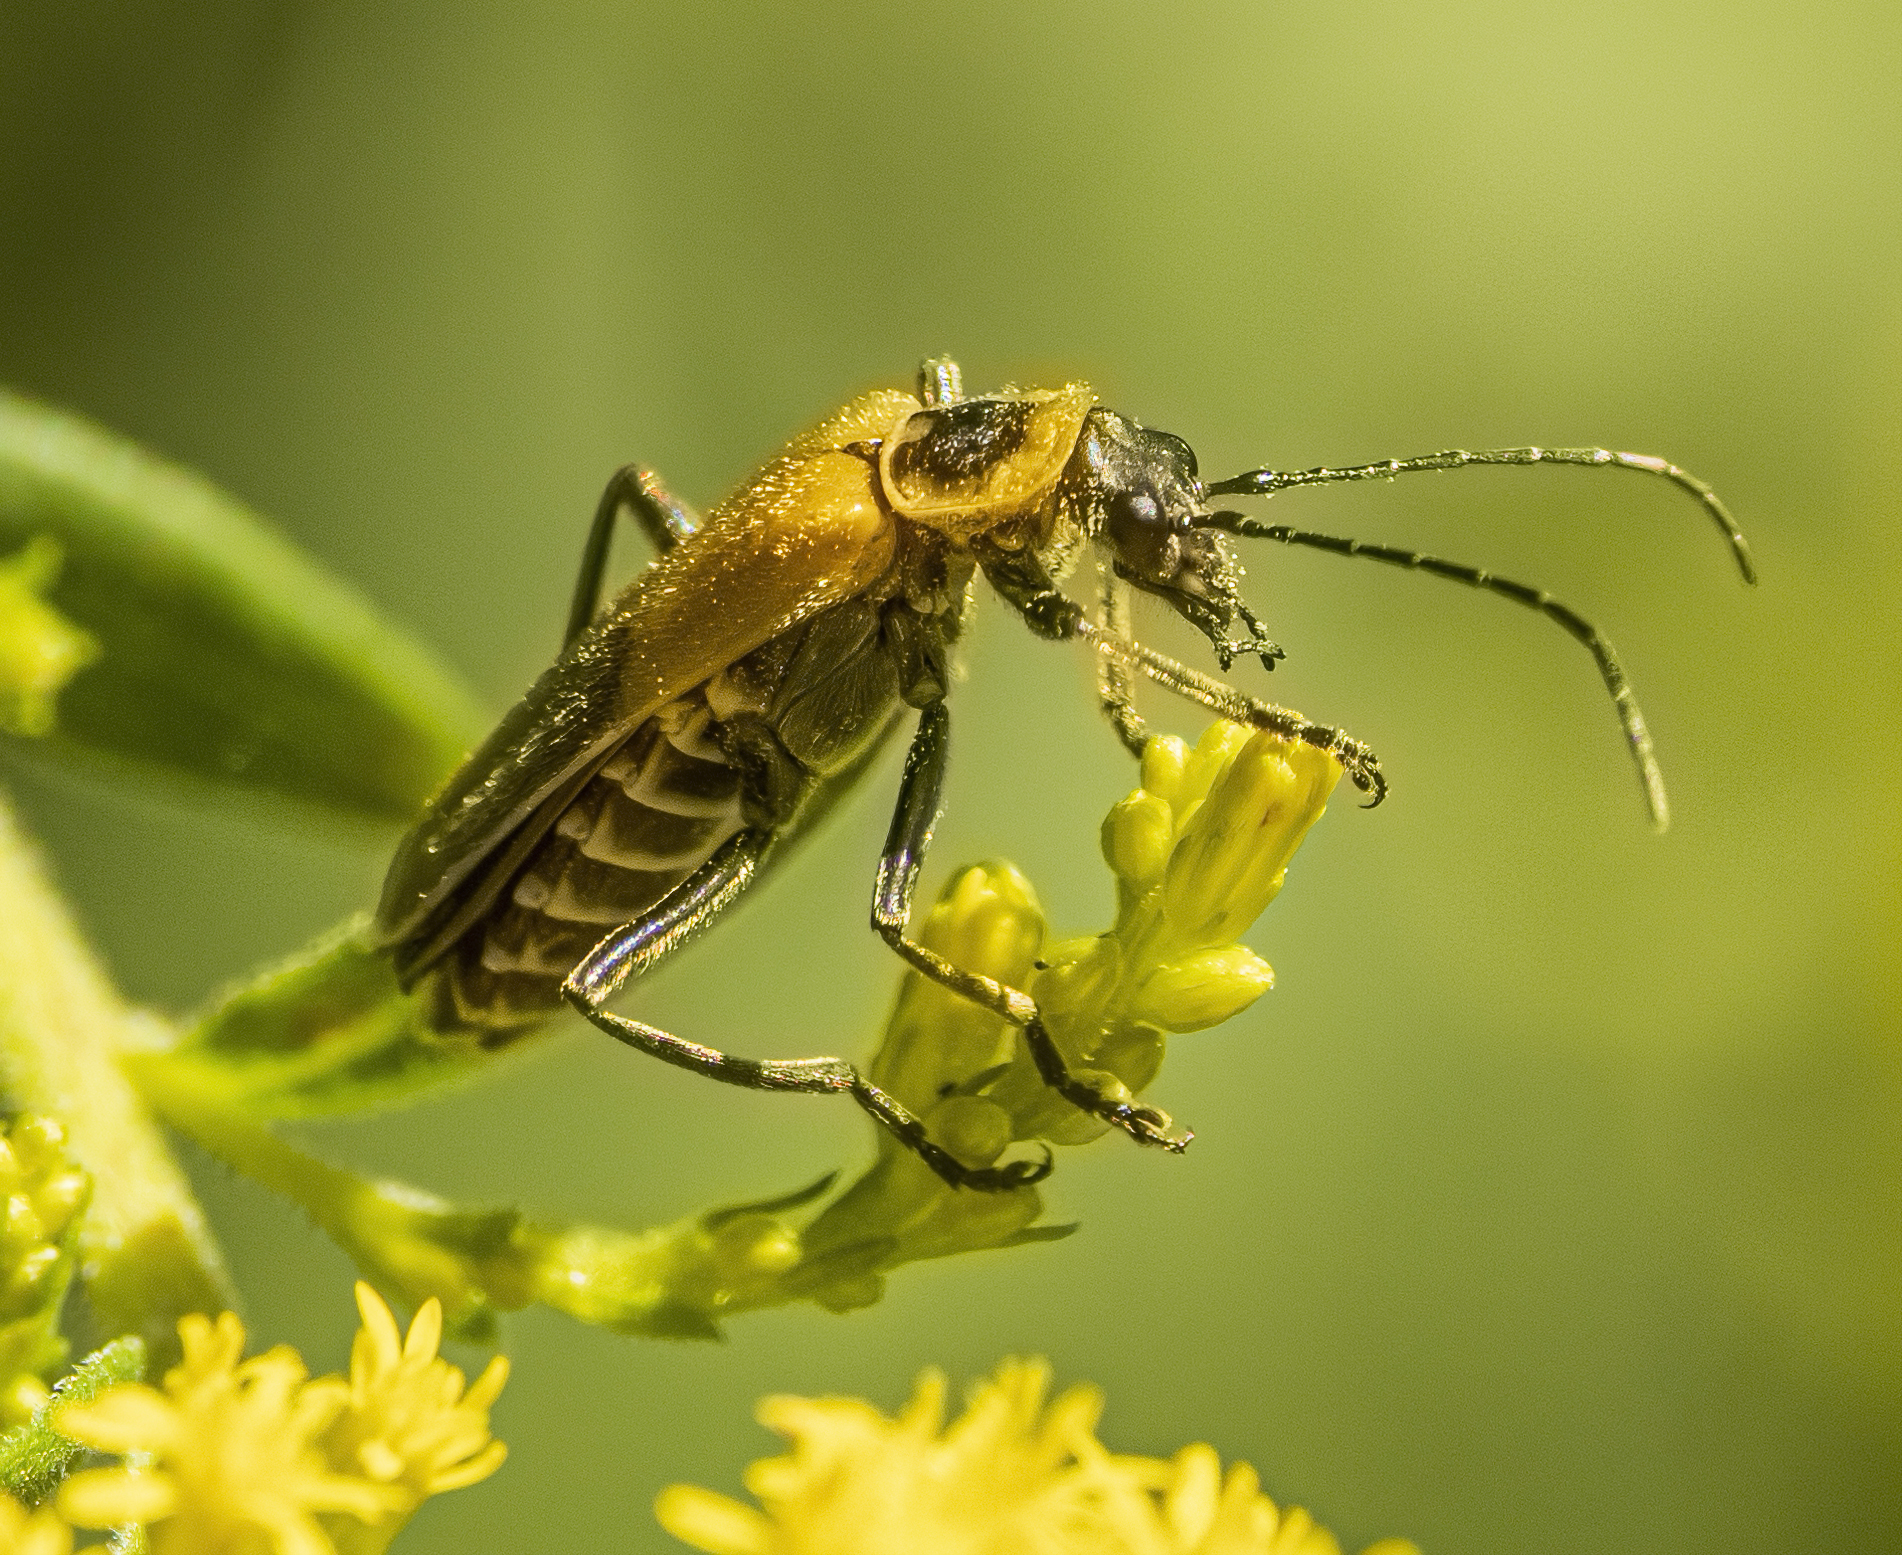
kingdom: Animalia
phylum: Arthropoda
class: Insecta
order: Coleoptera
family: Cantharidae
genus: Chauliognathus
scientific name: Chauliognathus pensylvanicus
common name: Goldenrod soldier beetle
